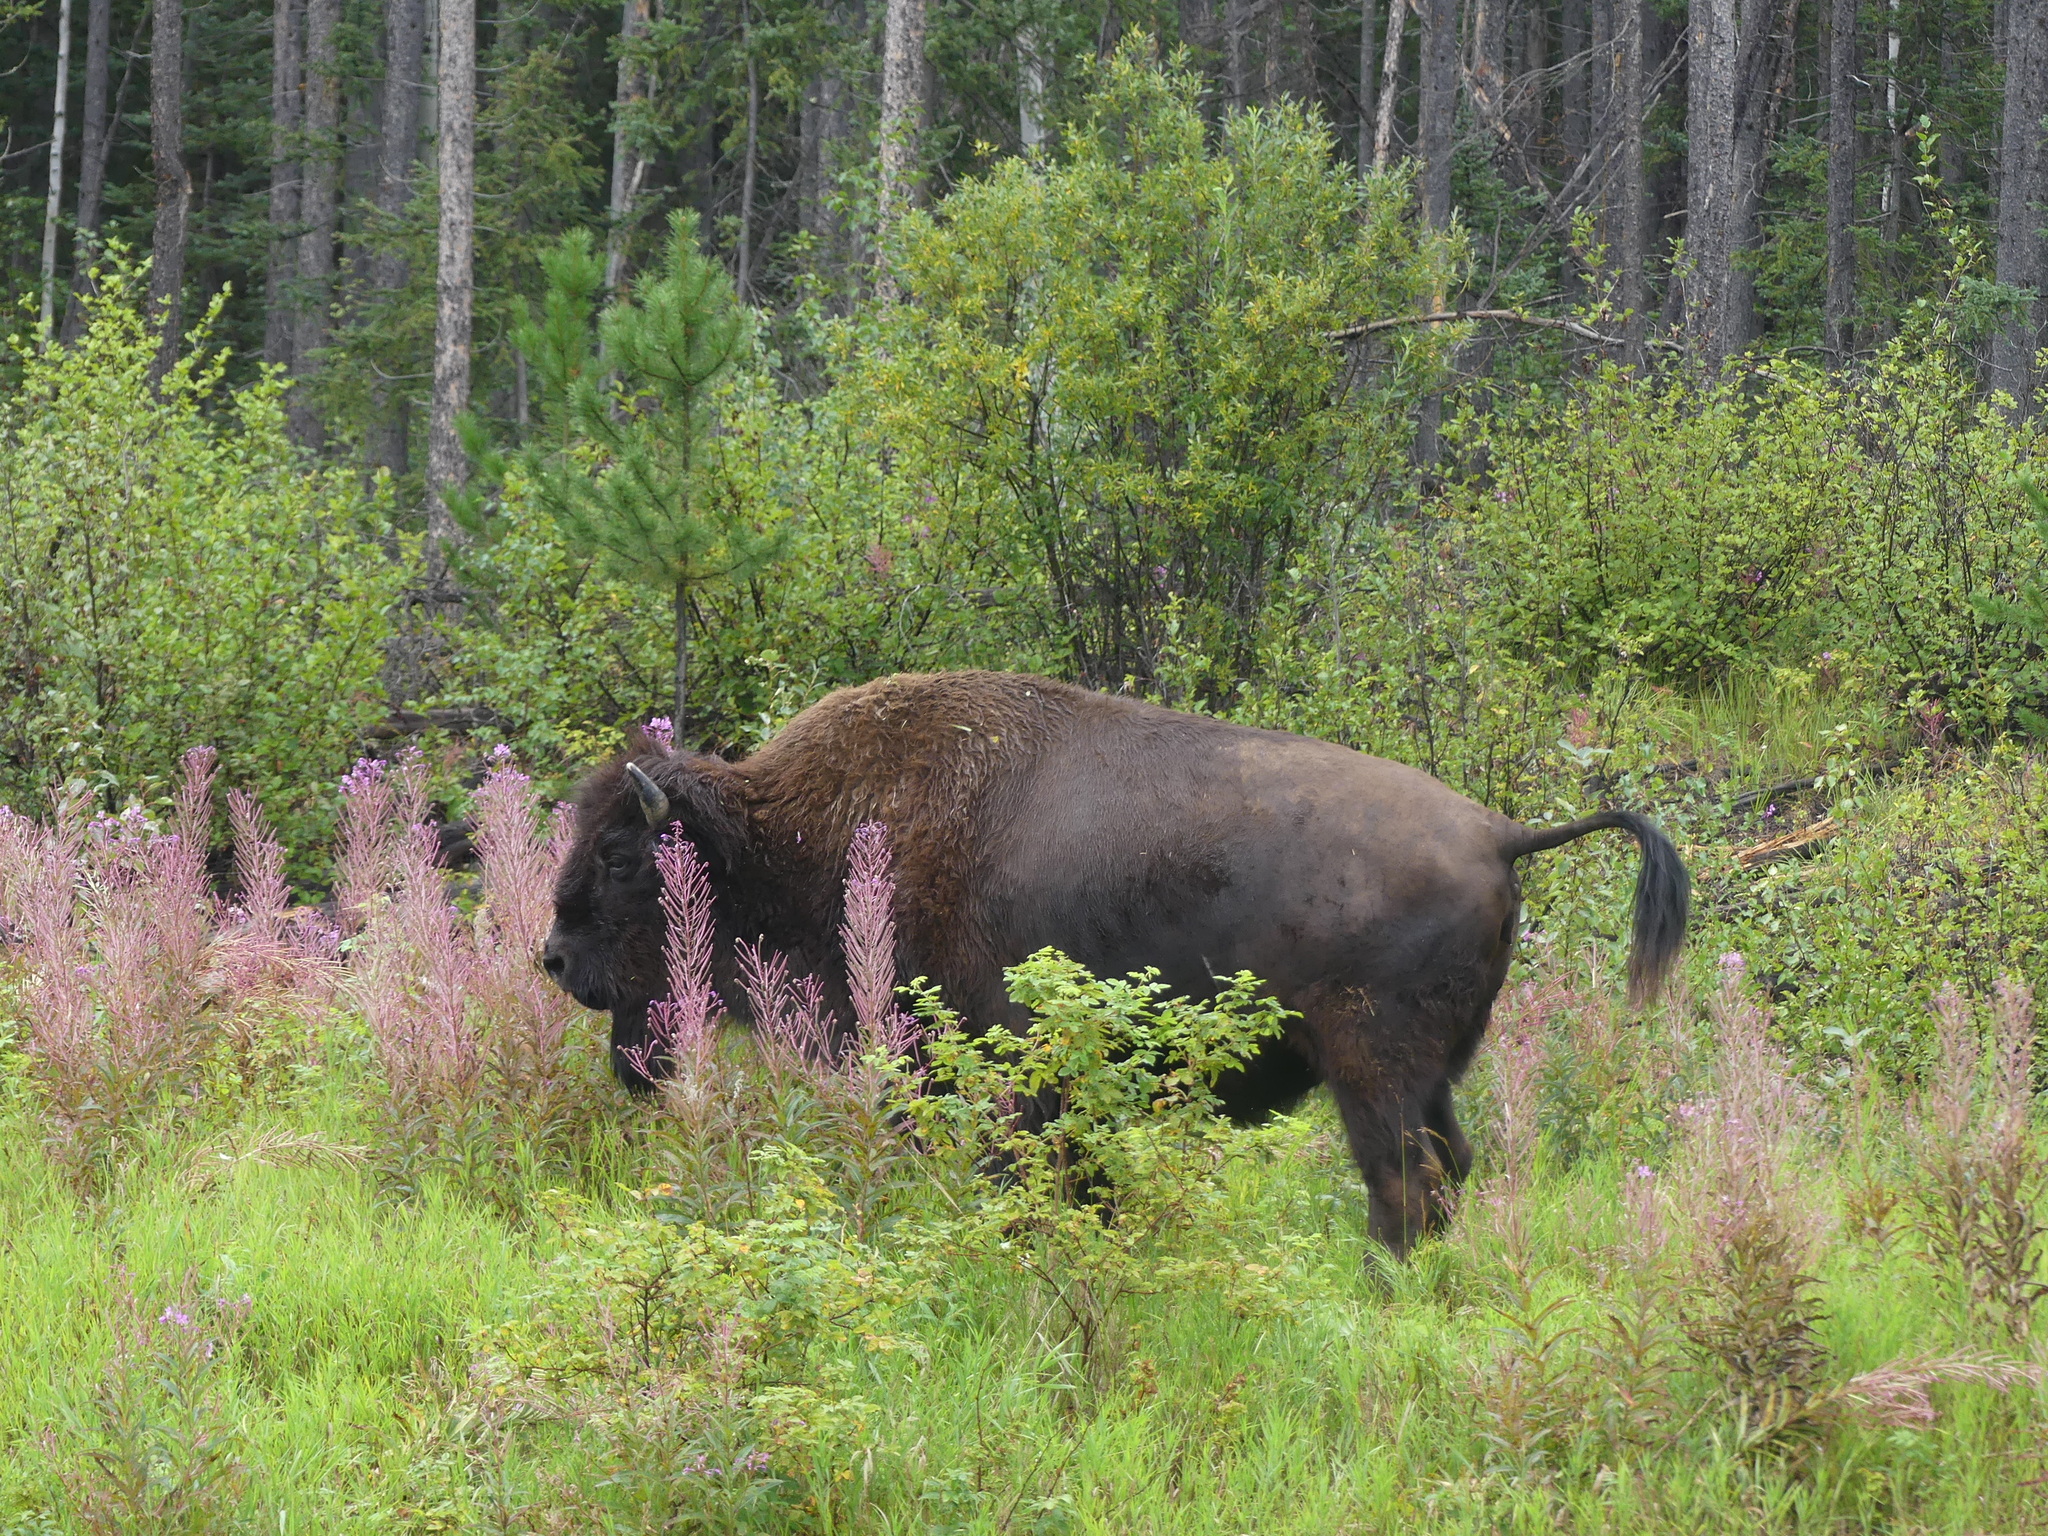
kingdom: Animalia
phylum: Chordata
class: Mammalia
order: Artiodactyla
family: Bovidae
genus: Bison
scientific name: Bison bison
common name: American bison
